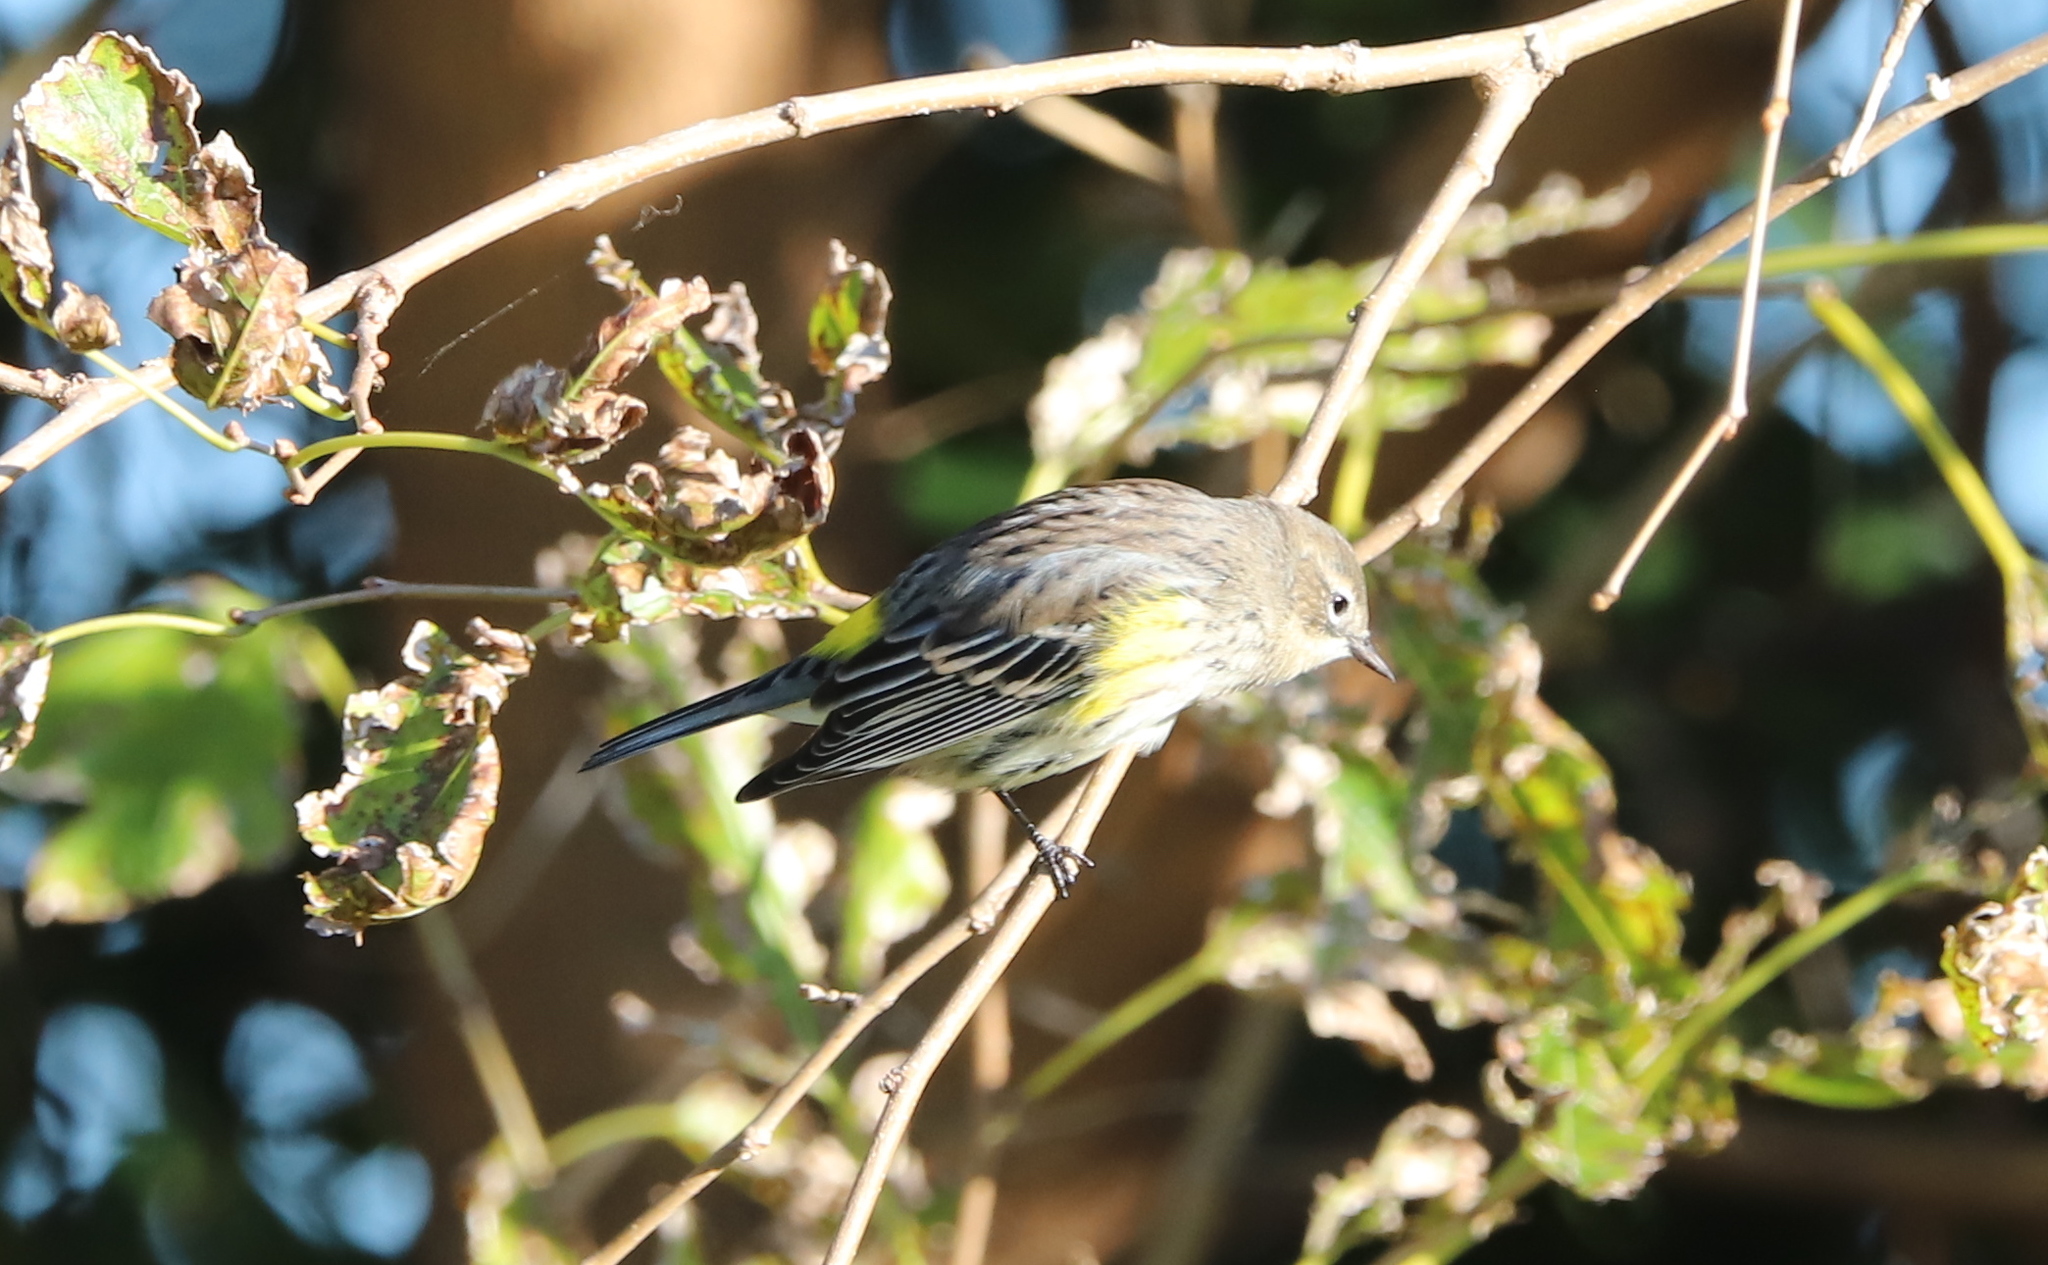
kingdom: Animalia
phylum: Chordata
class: Aves
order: Passeriformes
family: Parulidae
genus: Setophaga
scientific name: Setophaga coronata
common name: Myrtle warbler
